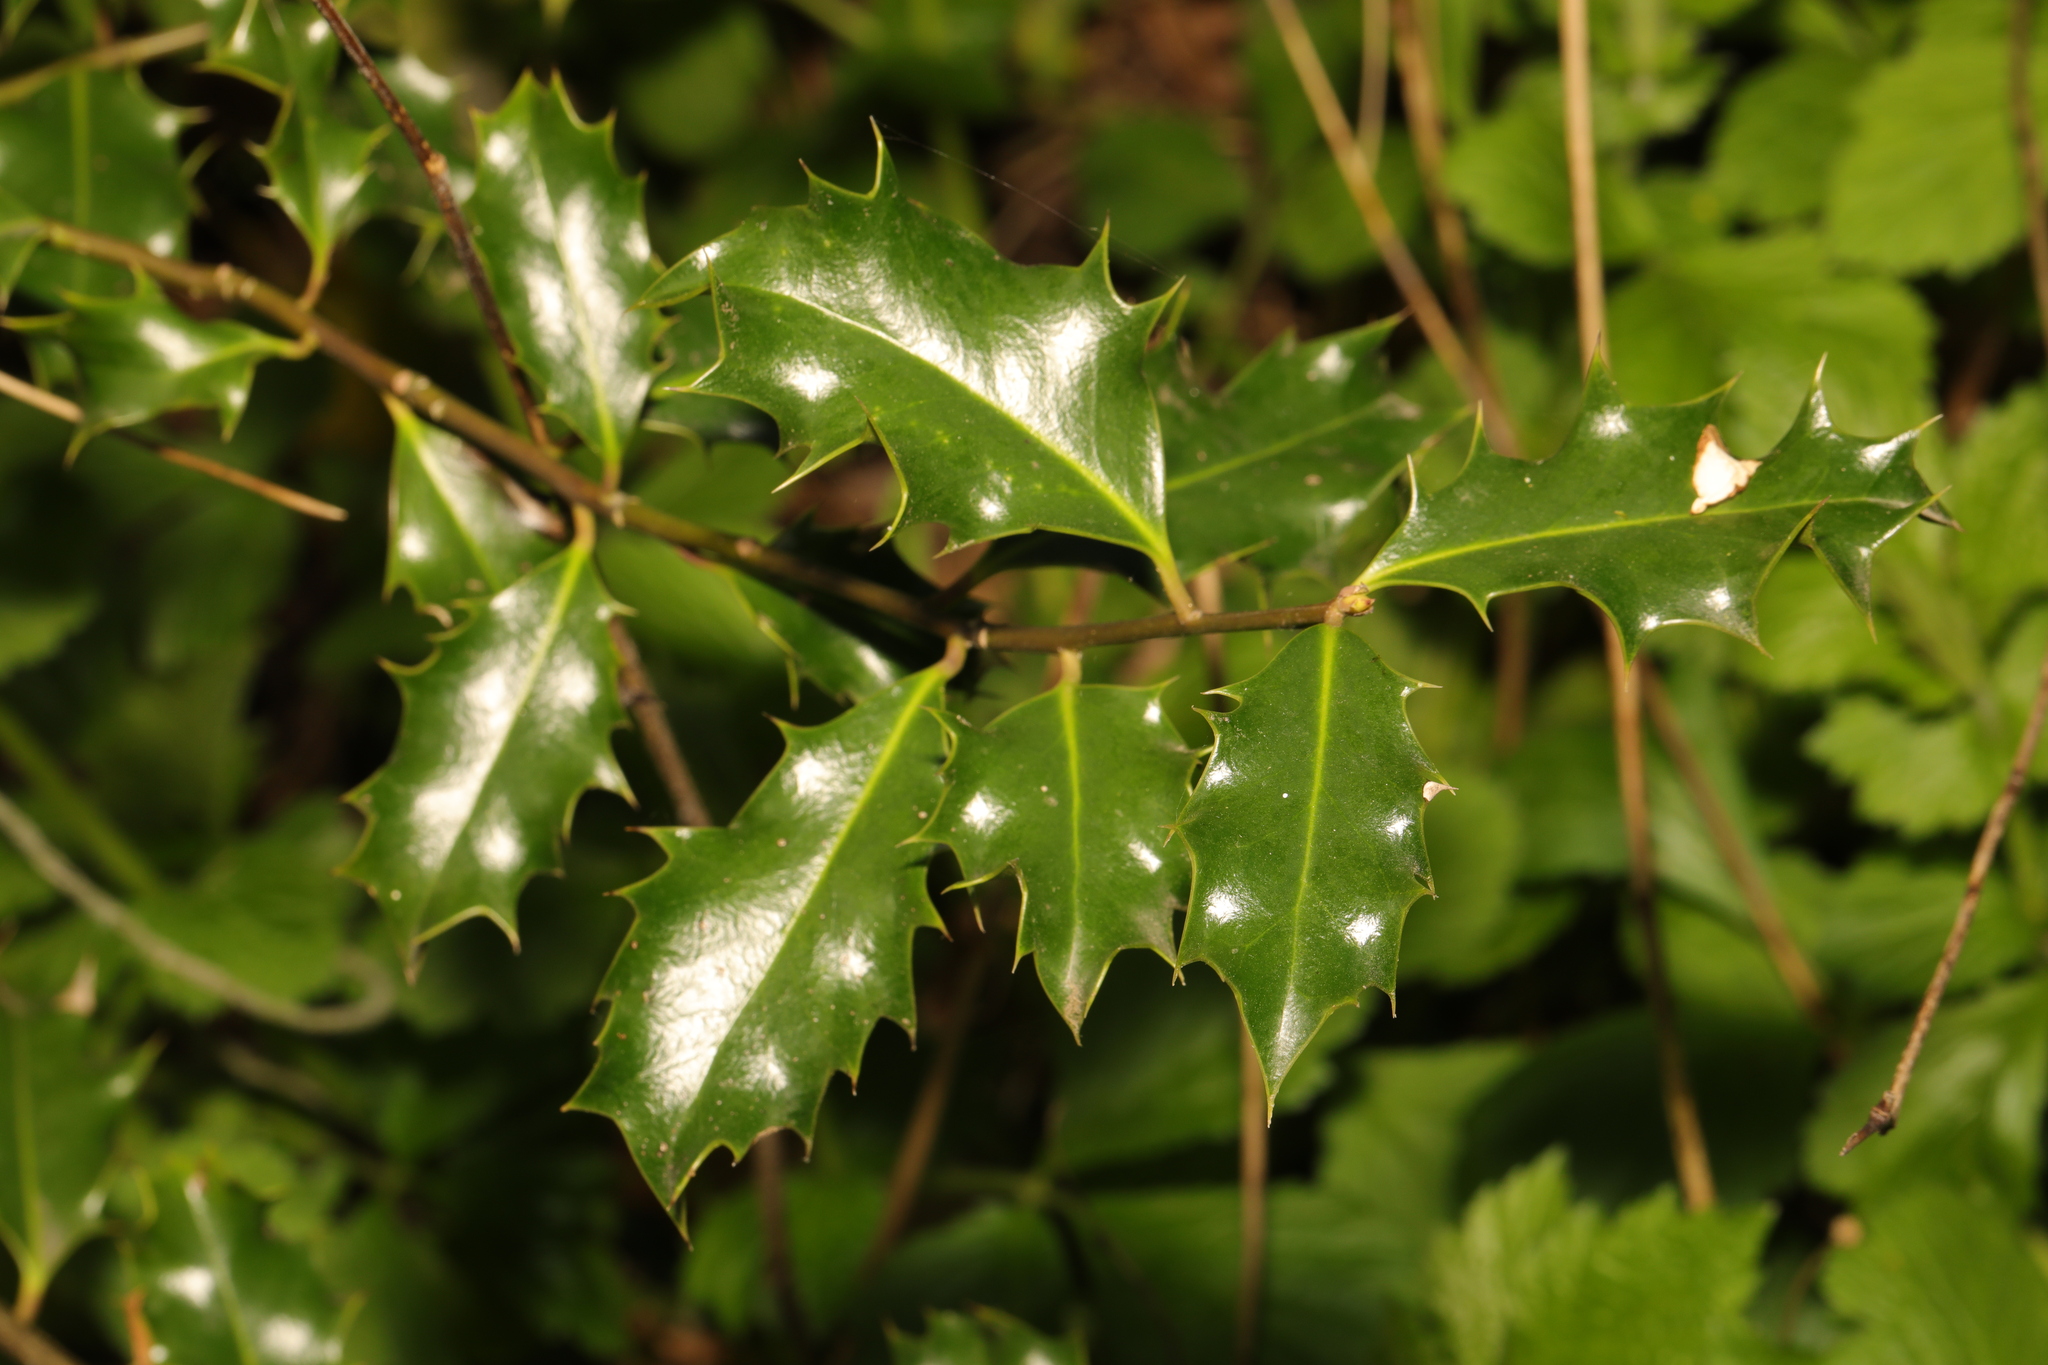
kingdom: Plantae
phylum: Tracheophyta
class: Magnoliopsida
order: Aquifoliales
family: Aquifoliaceae
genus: Ilex
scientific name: Ilex aquifolium
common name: English holly
